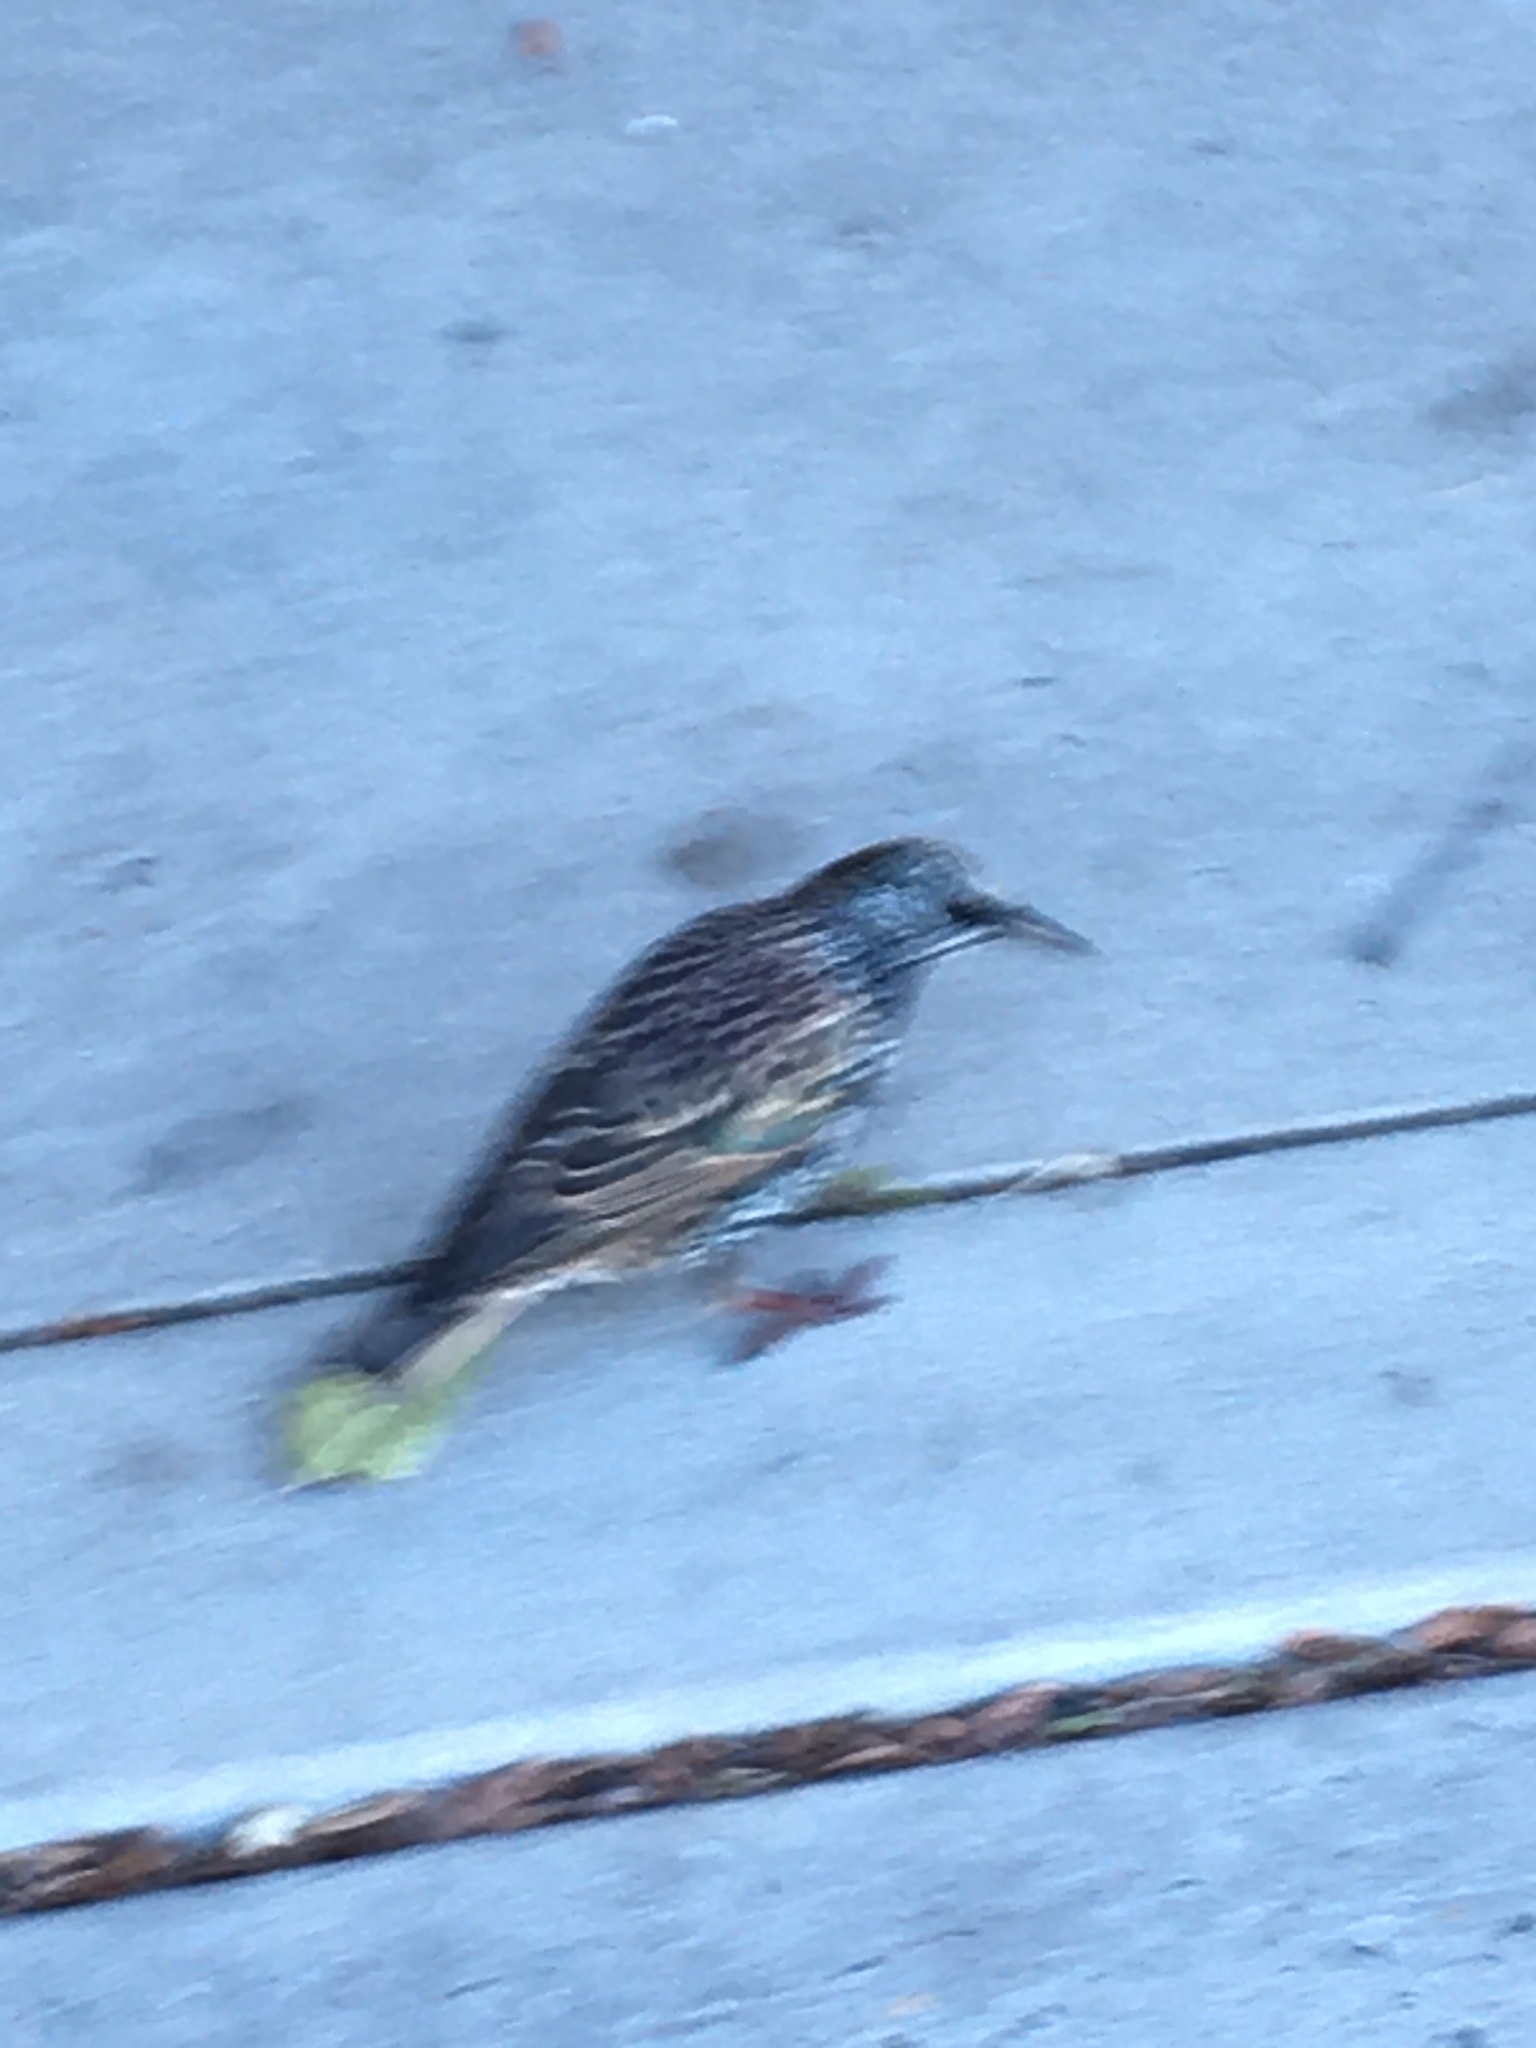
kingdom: Animalia
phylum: Chordata
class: Aves
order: Passeriformes
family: Sturnidae
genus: Sturnus
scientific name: Sturnus vulgaris
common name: Common starling
